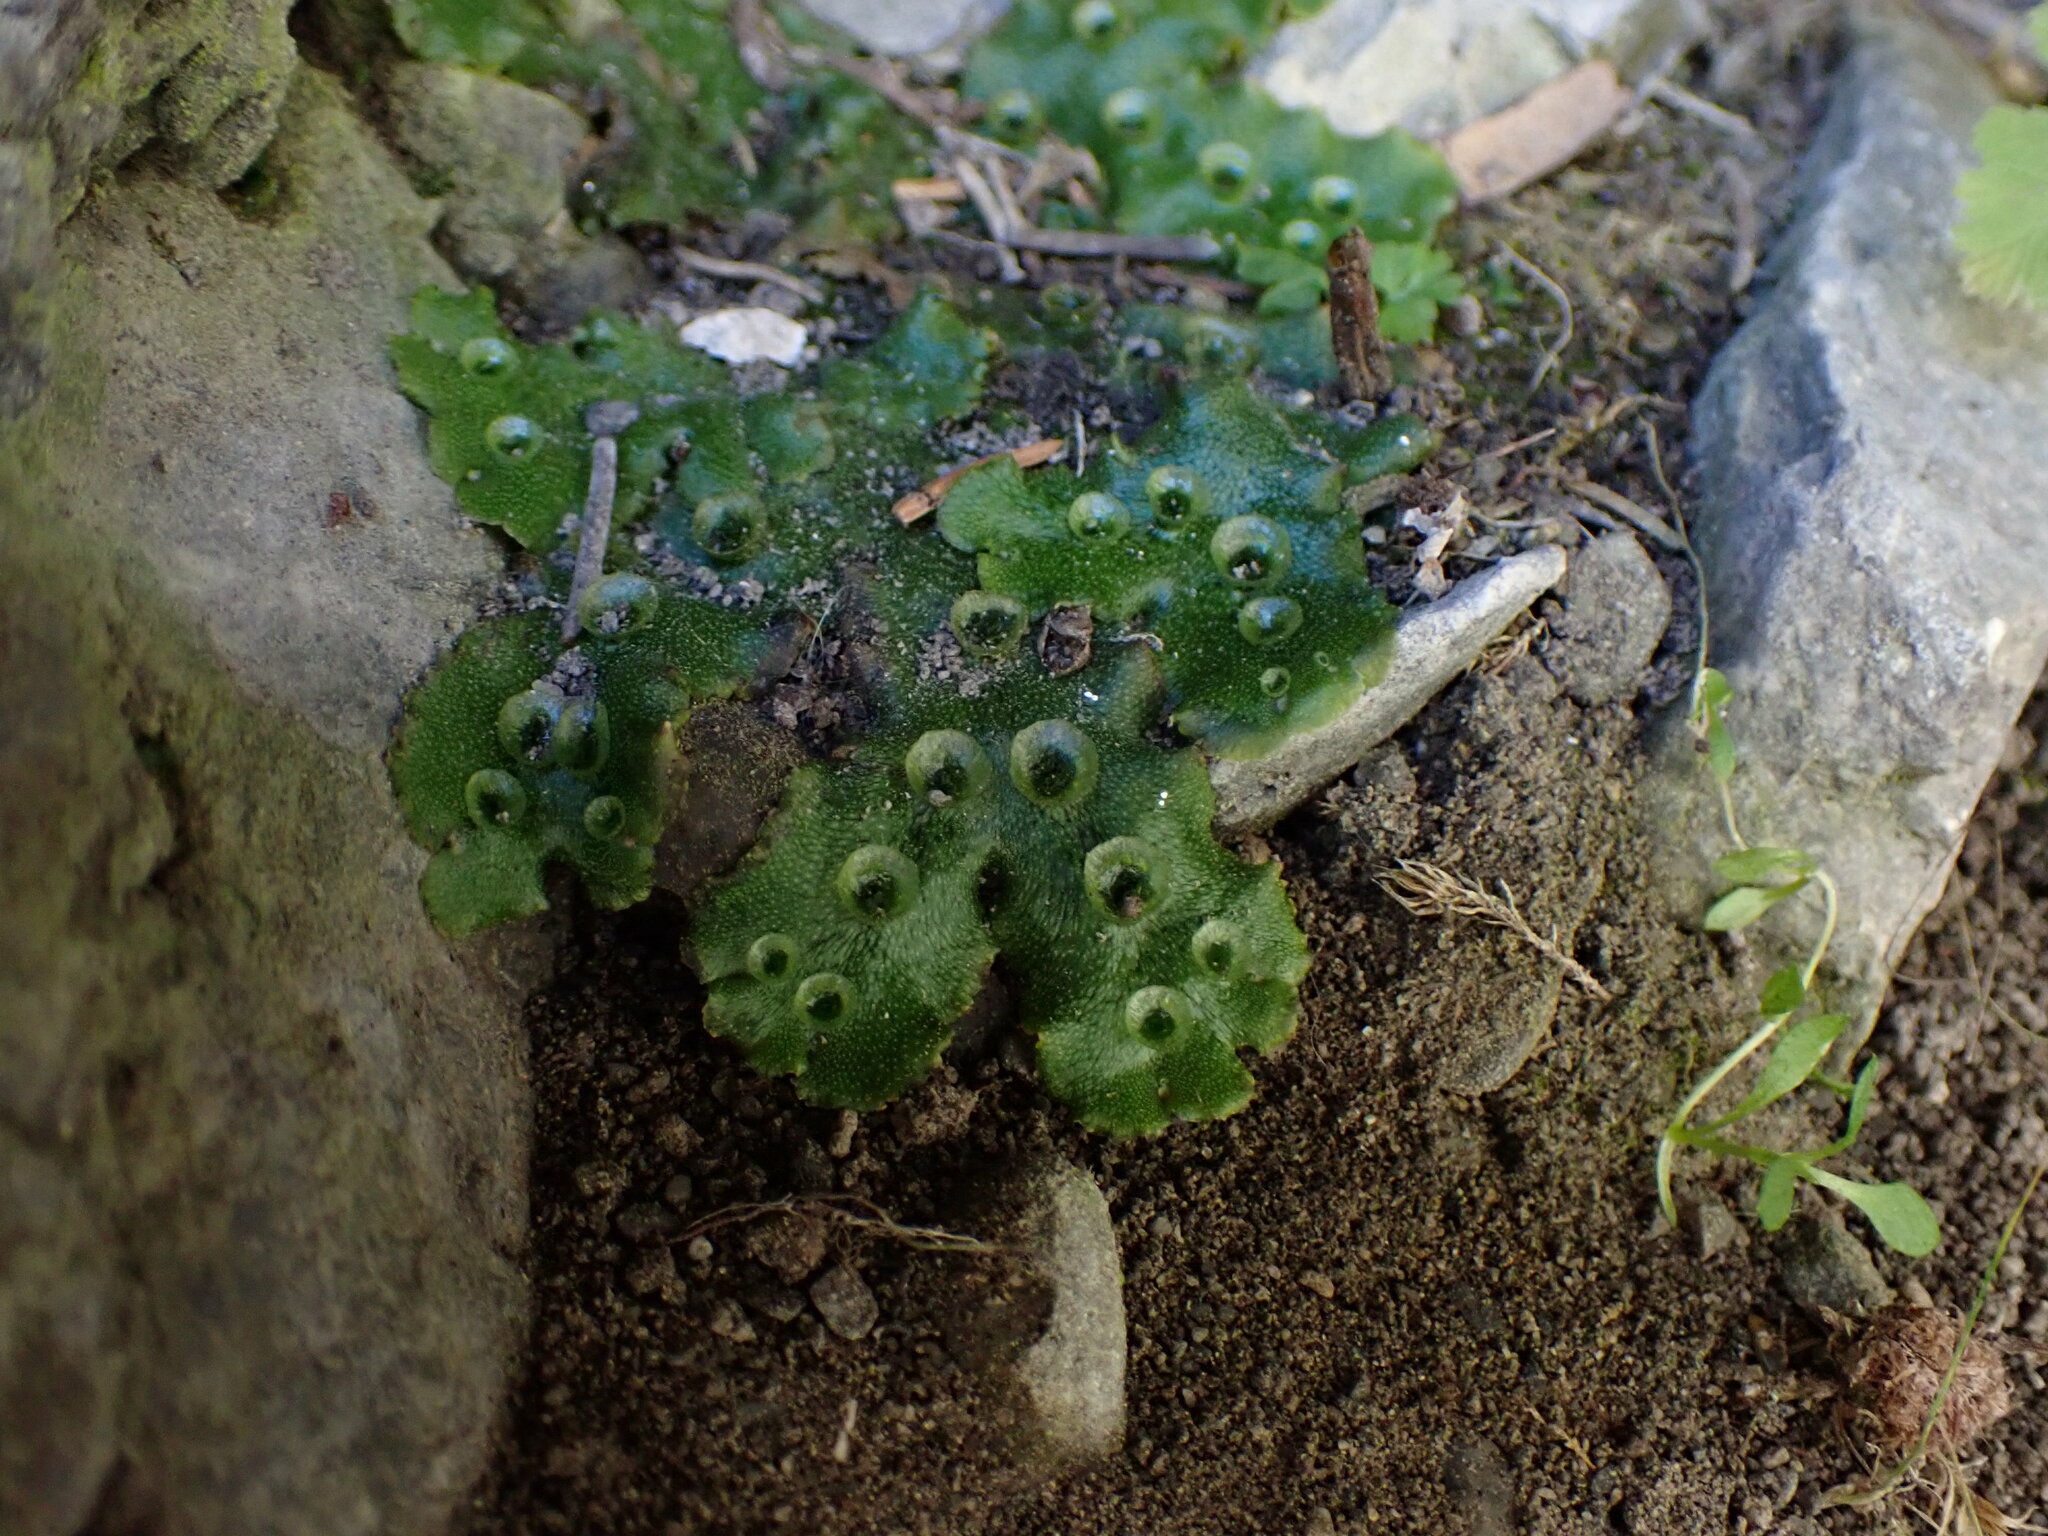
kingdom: Plantae
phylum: Marchantiophyta
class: Marchantiopsida
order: Marchantiales
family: Marchantiaceae
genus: Marchantia
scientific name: Marchantia polymorpha
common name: Common liverwort
